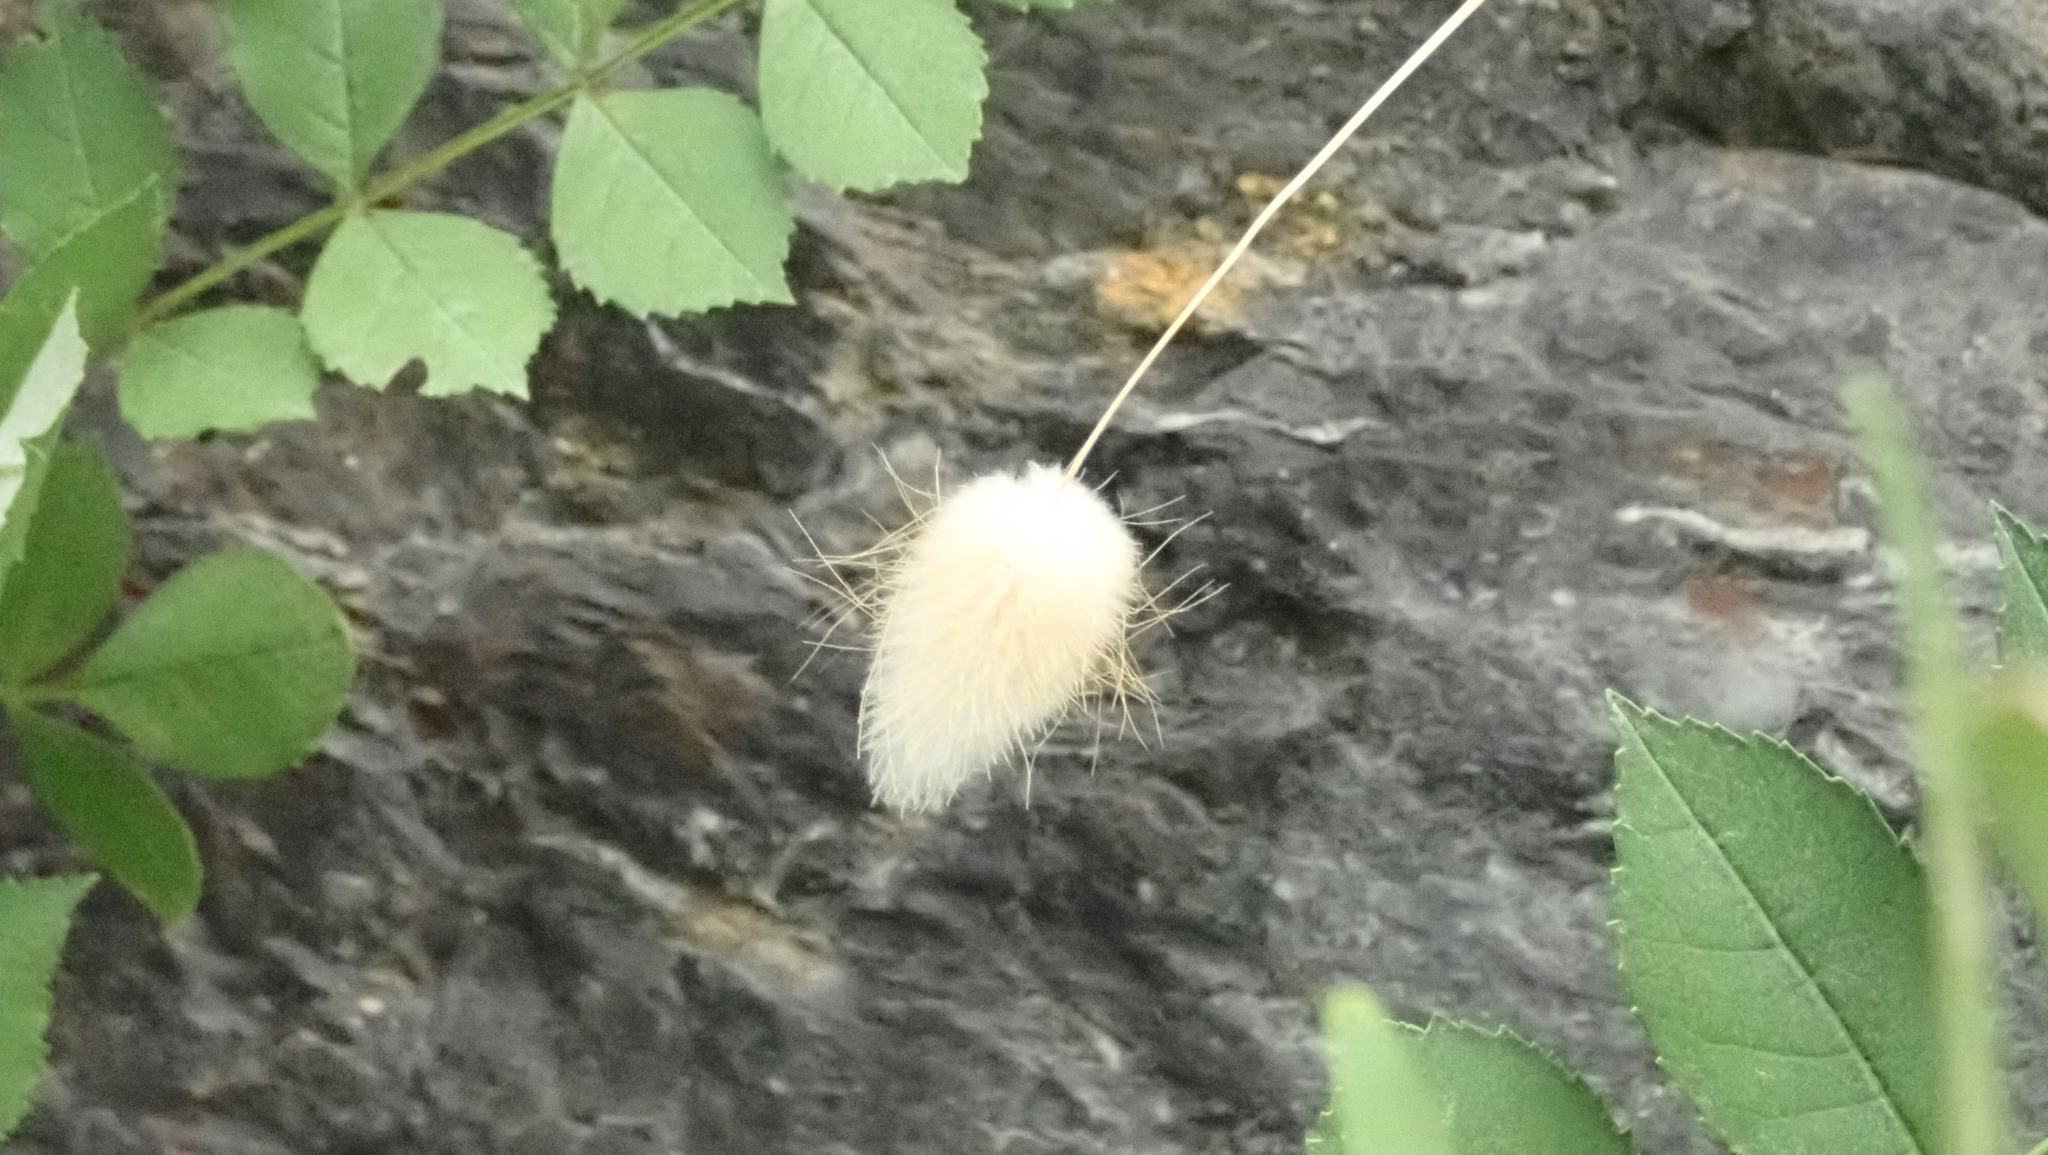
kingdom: Plantae
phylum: Tracheophyta
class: Liliopsida
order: Poales
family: Poaceae
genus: Lagurus
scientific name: Lagurus ovatus
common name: Hare's-tail
